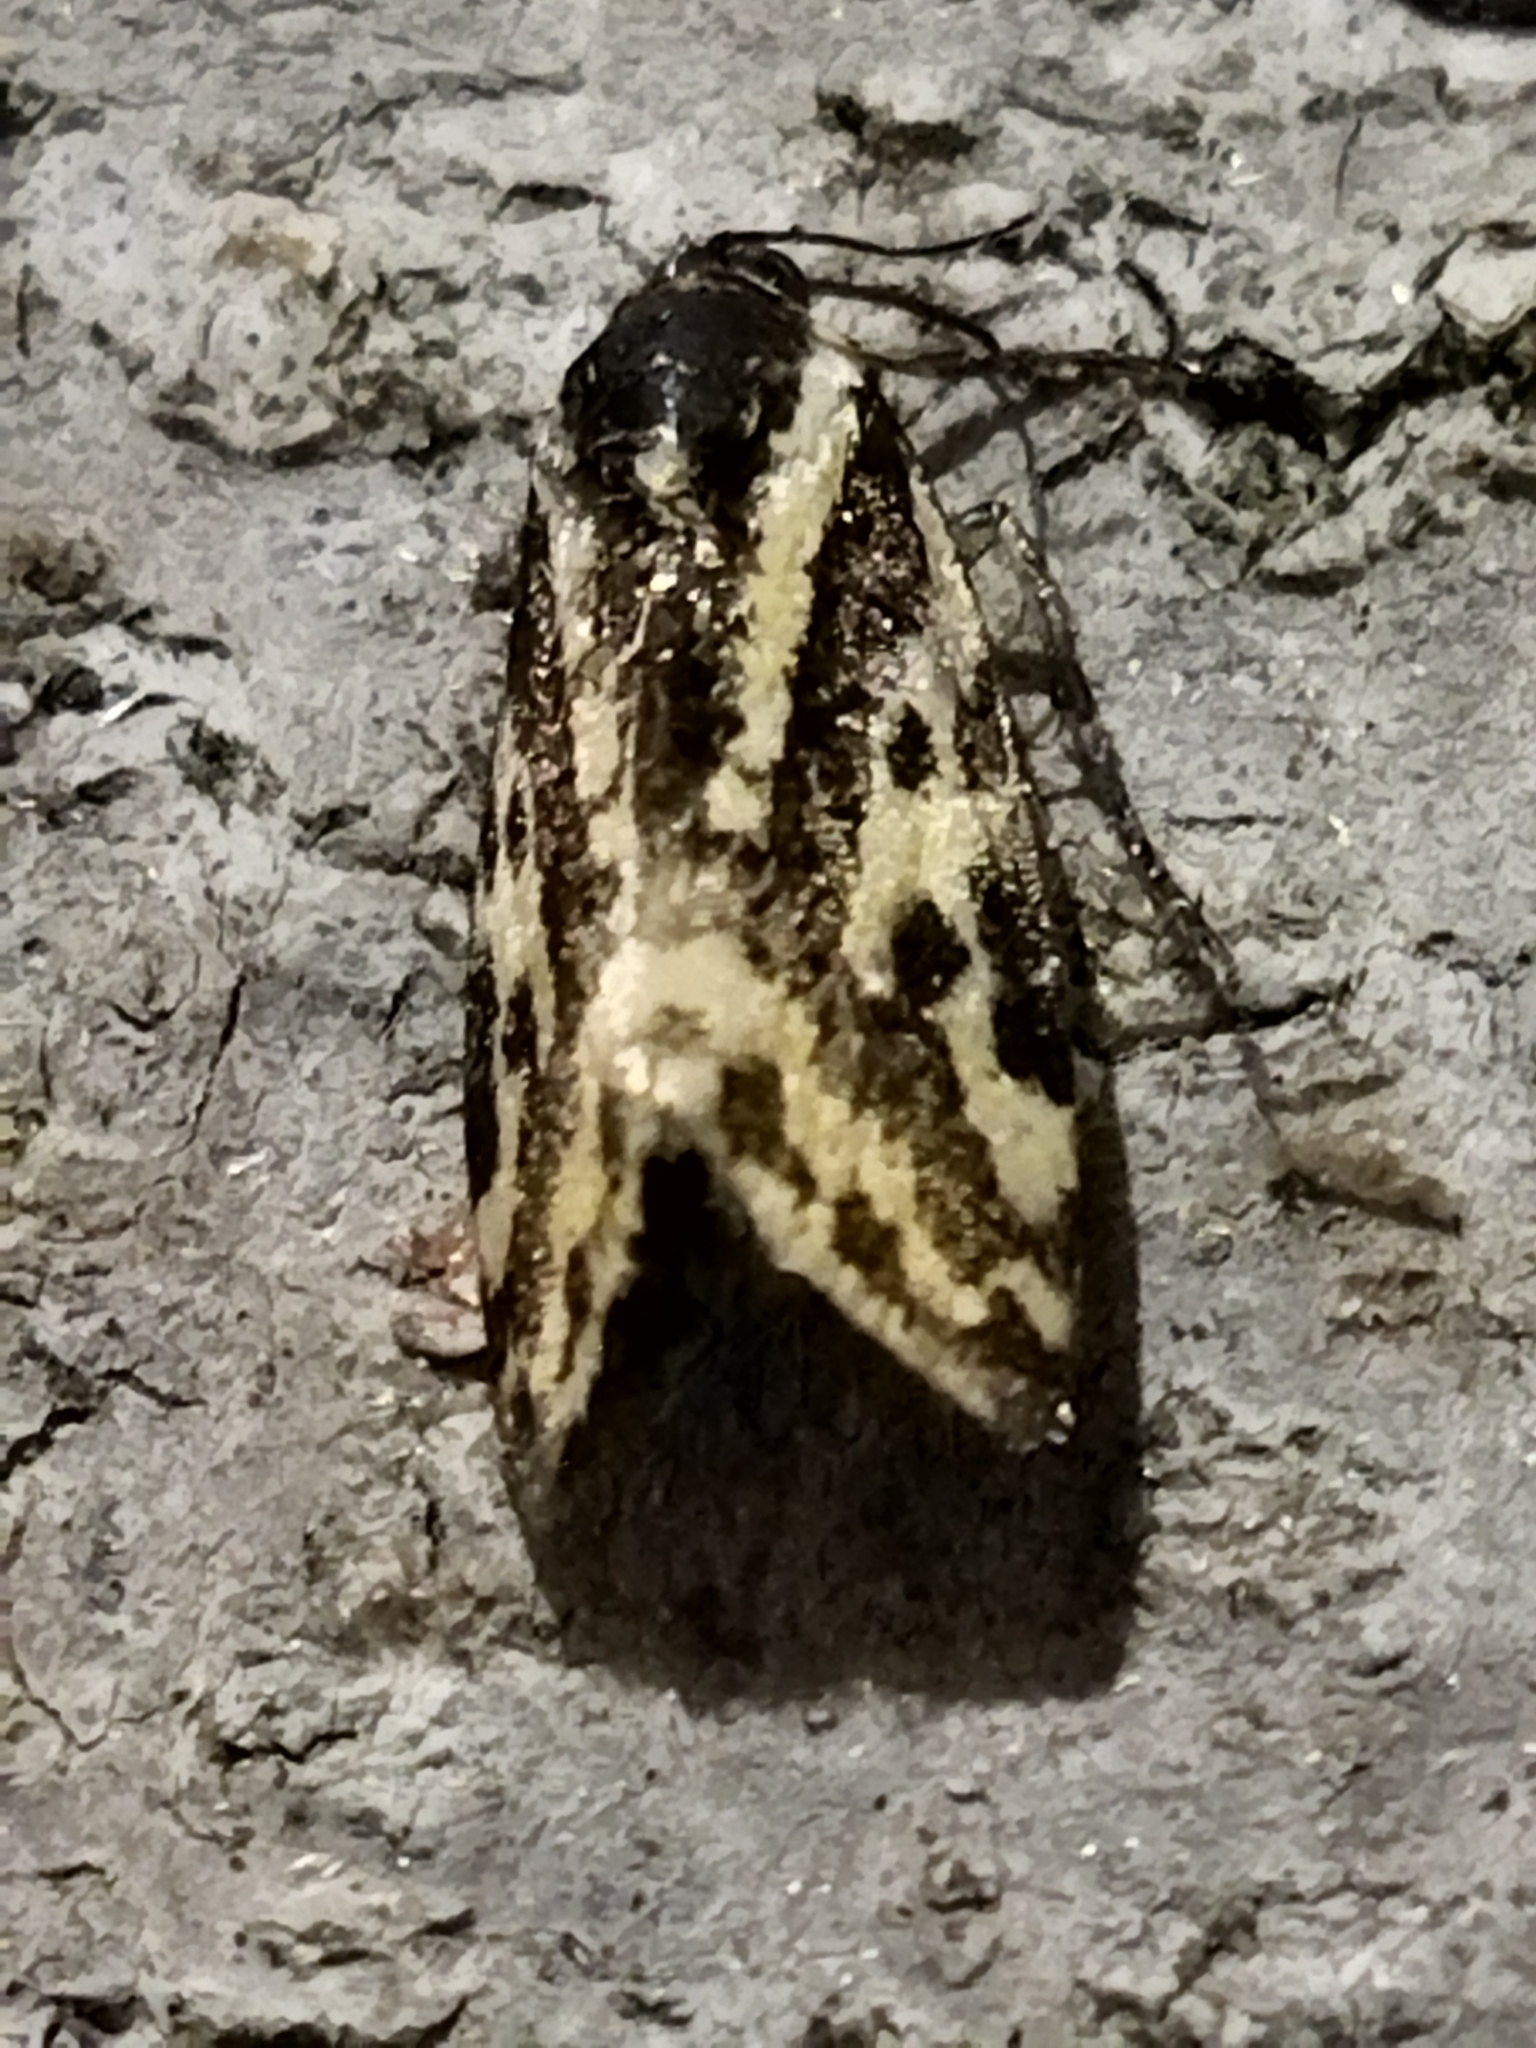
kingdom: Animalia
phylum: Arthropoda
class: Insecta
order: Lepidoptera
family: Noctuidae
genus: Acontia
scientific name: Acontia trabealis
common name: Spotted sulphur
